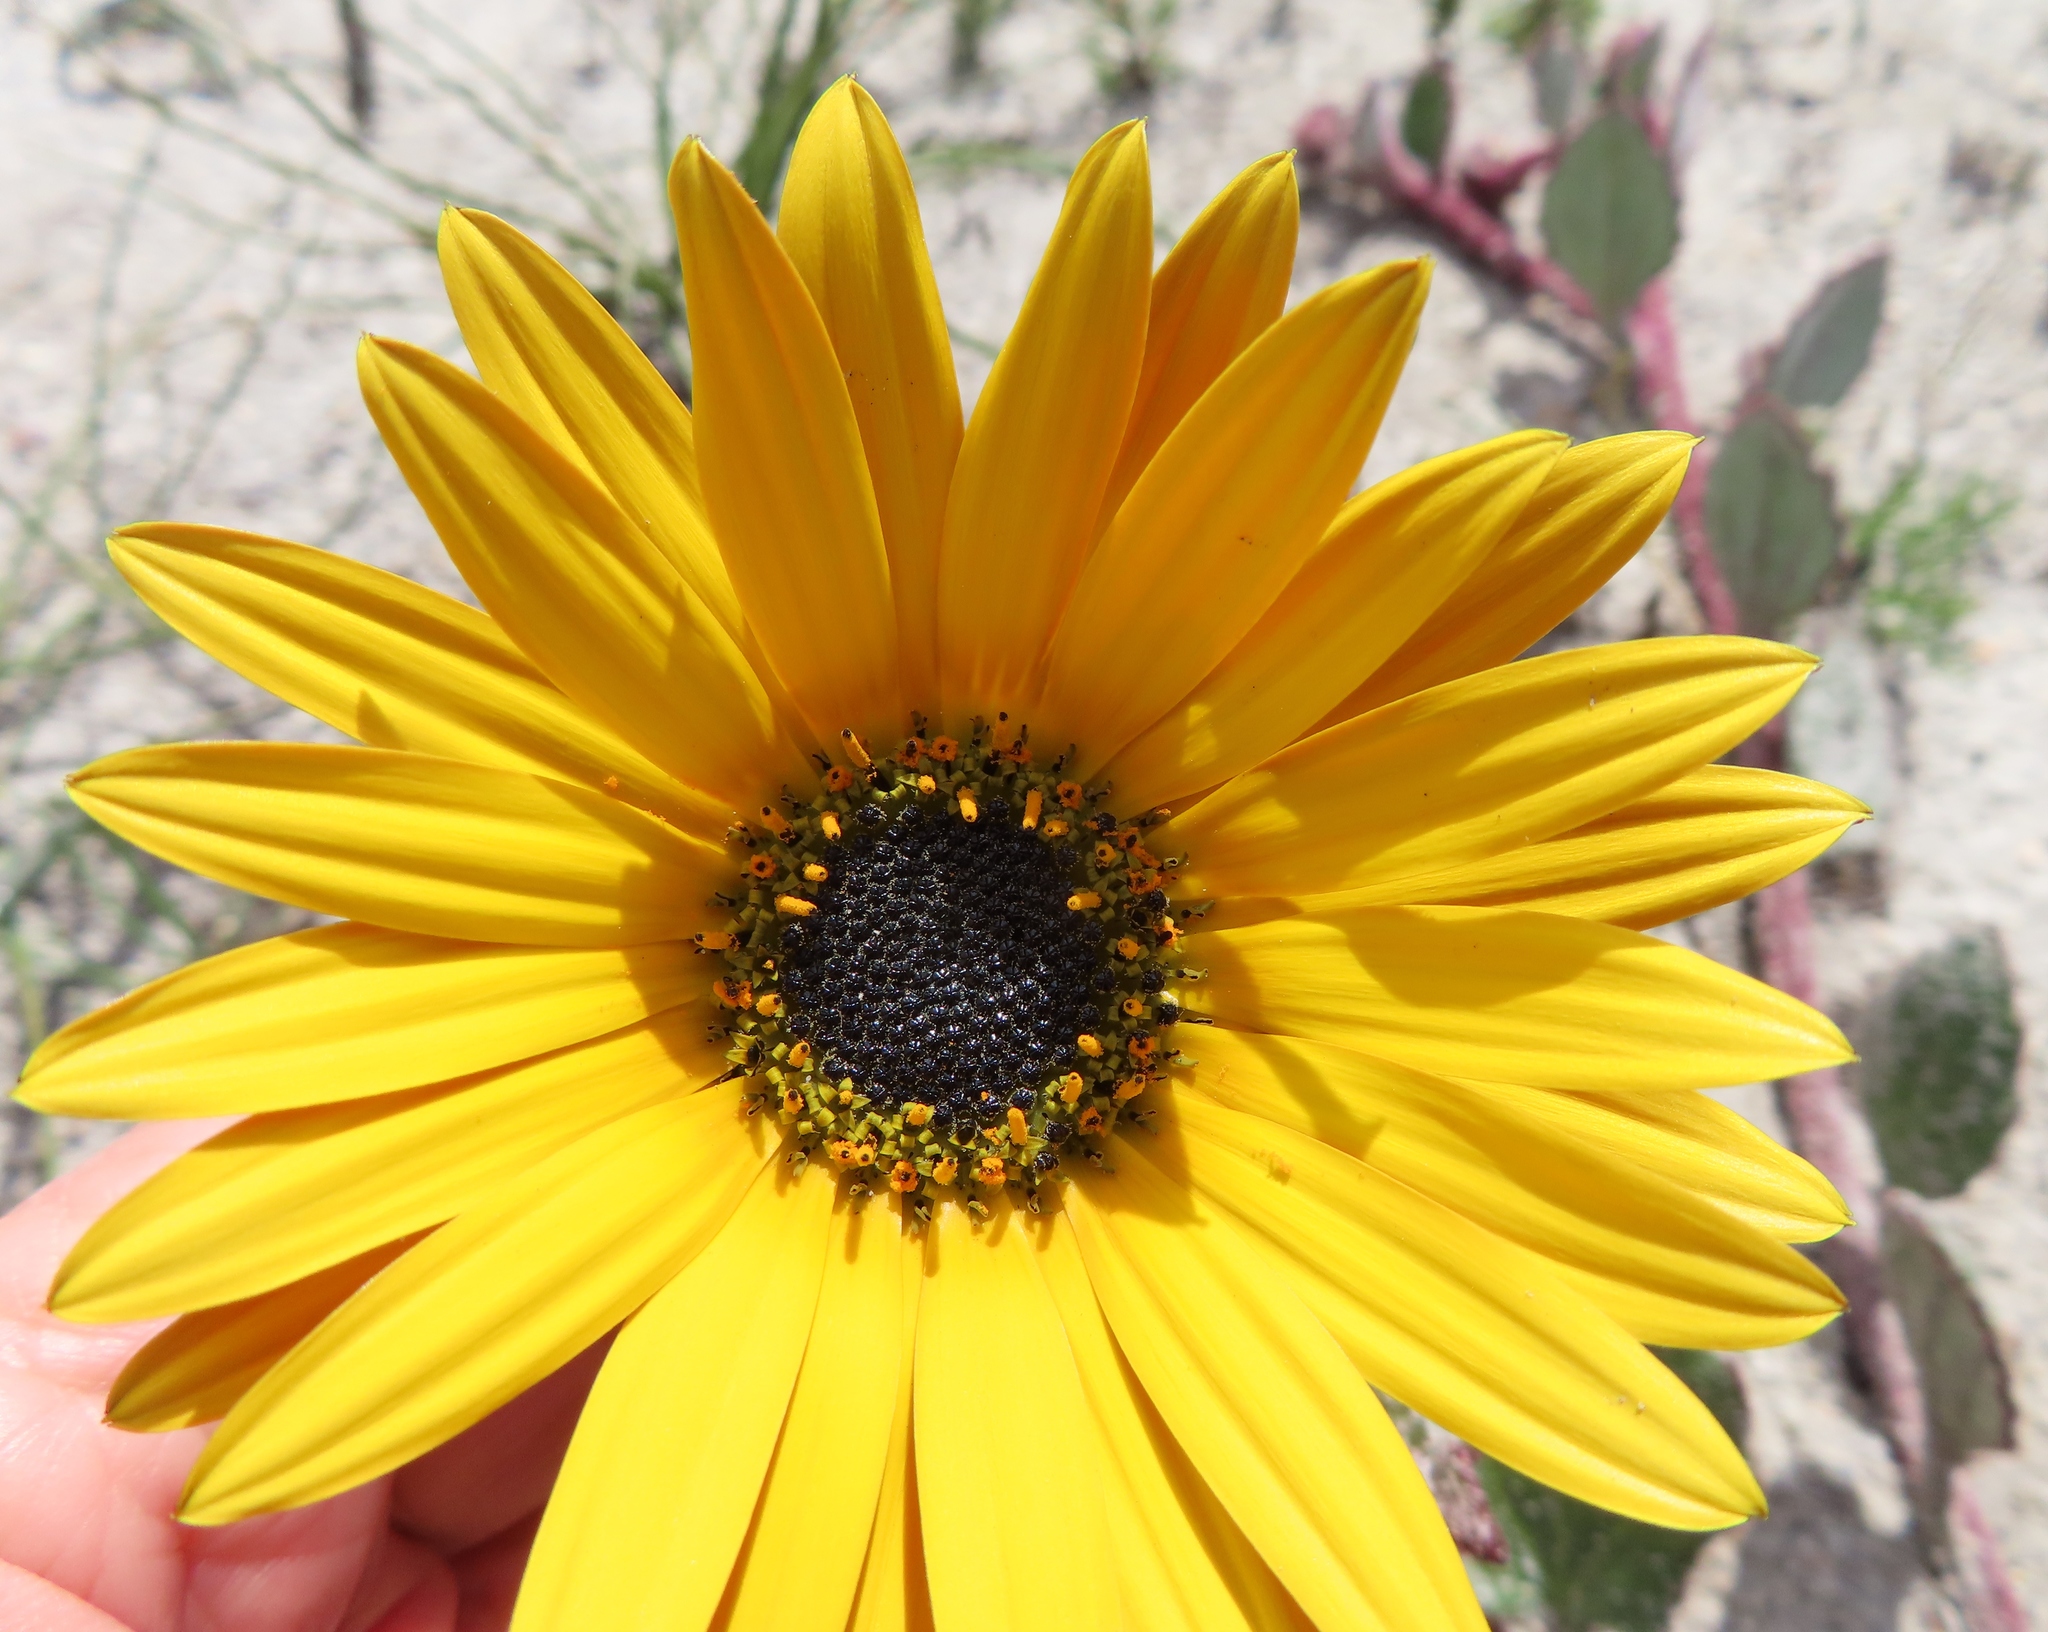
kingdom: Plantae
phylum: Tracheophyta
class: Magnoliopsida
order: Asterales
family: Asteraceae
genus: Arctotis
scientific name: Arctotis angustifolia
